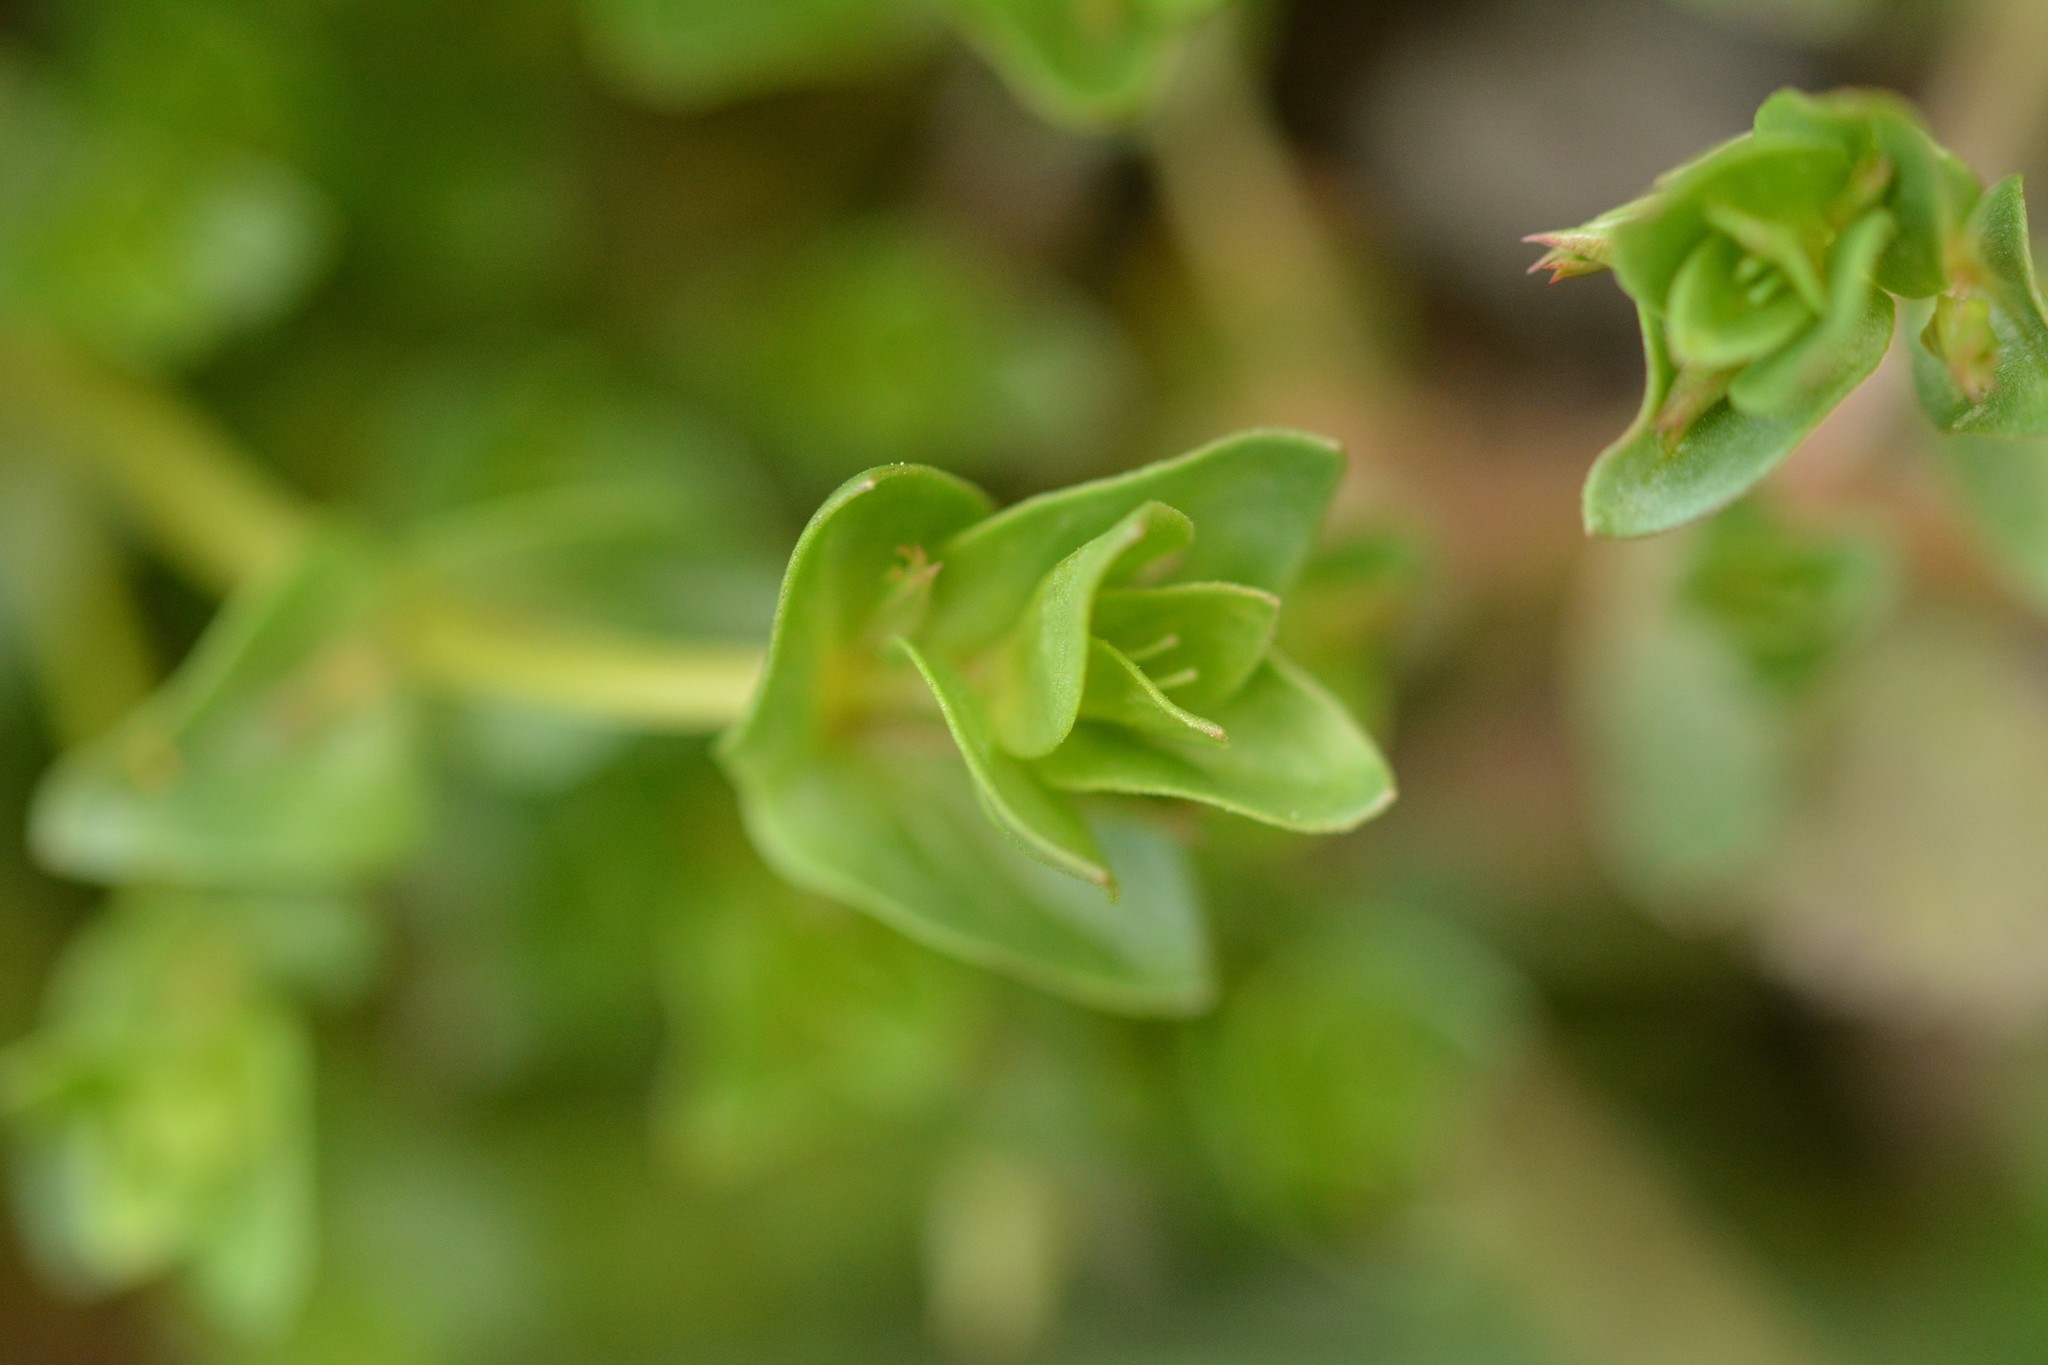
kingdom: Plantae
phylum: Tracheophyta
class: Magnoliopsida
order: Ericales
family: Primulaceae
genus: Lysimachia
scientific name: Lysimachia arvensis
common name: Scarlet pimpernel
